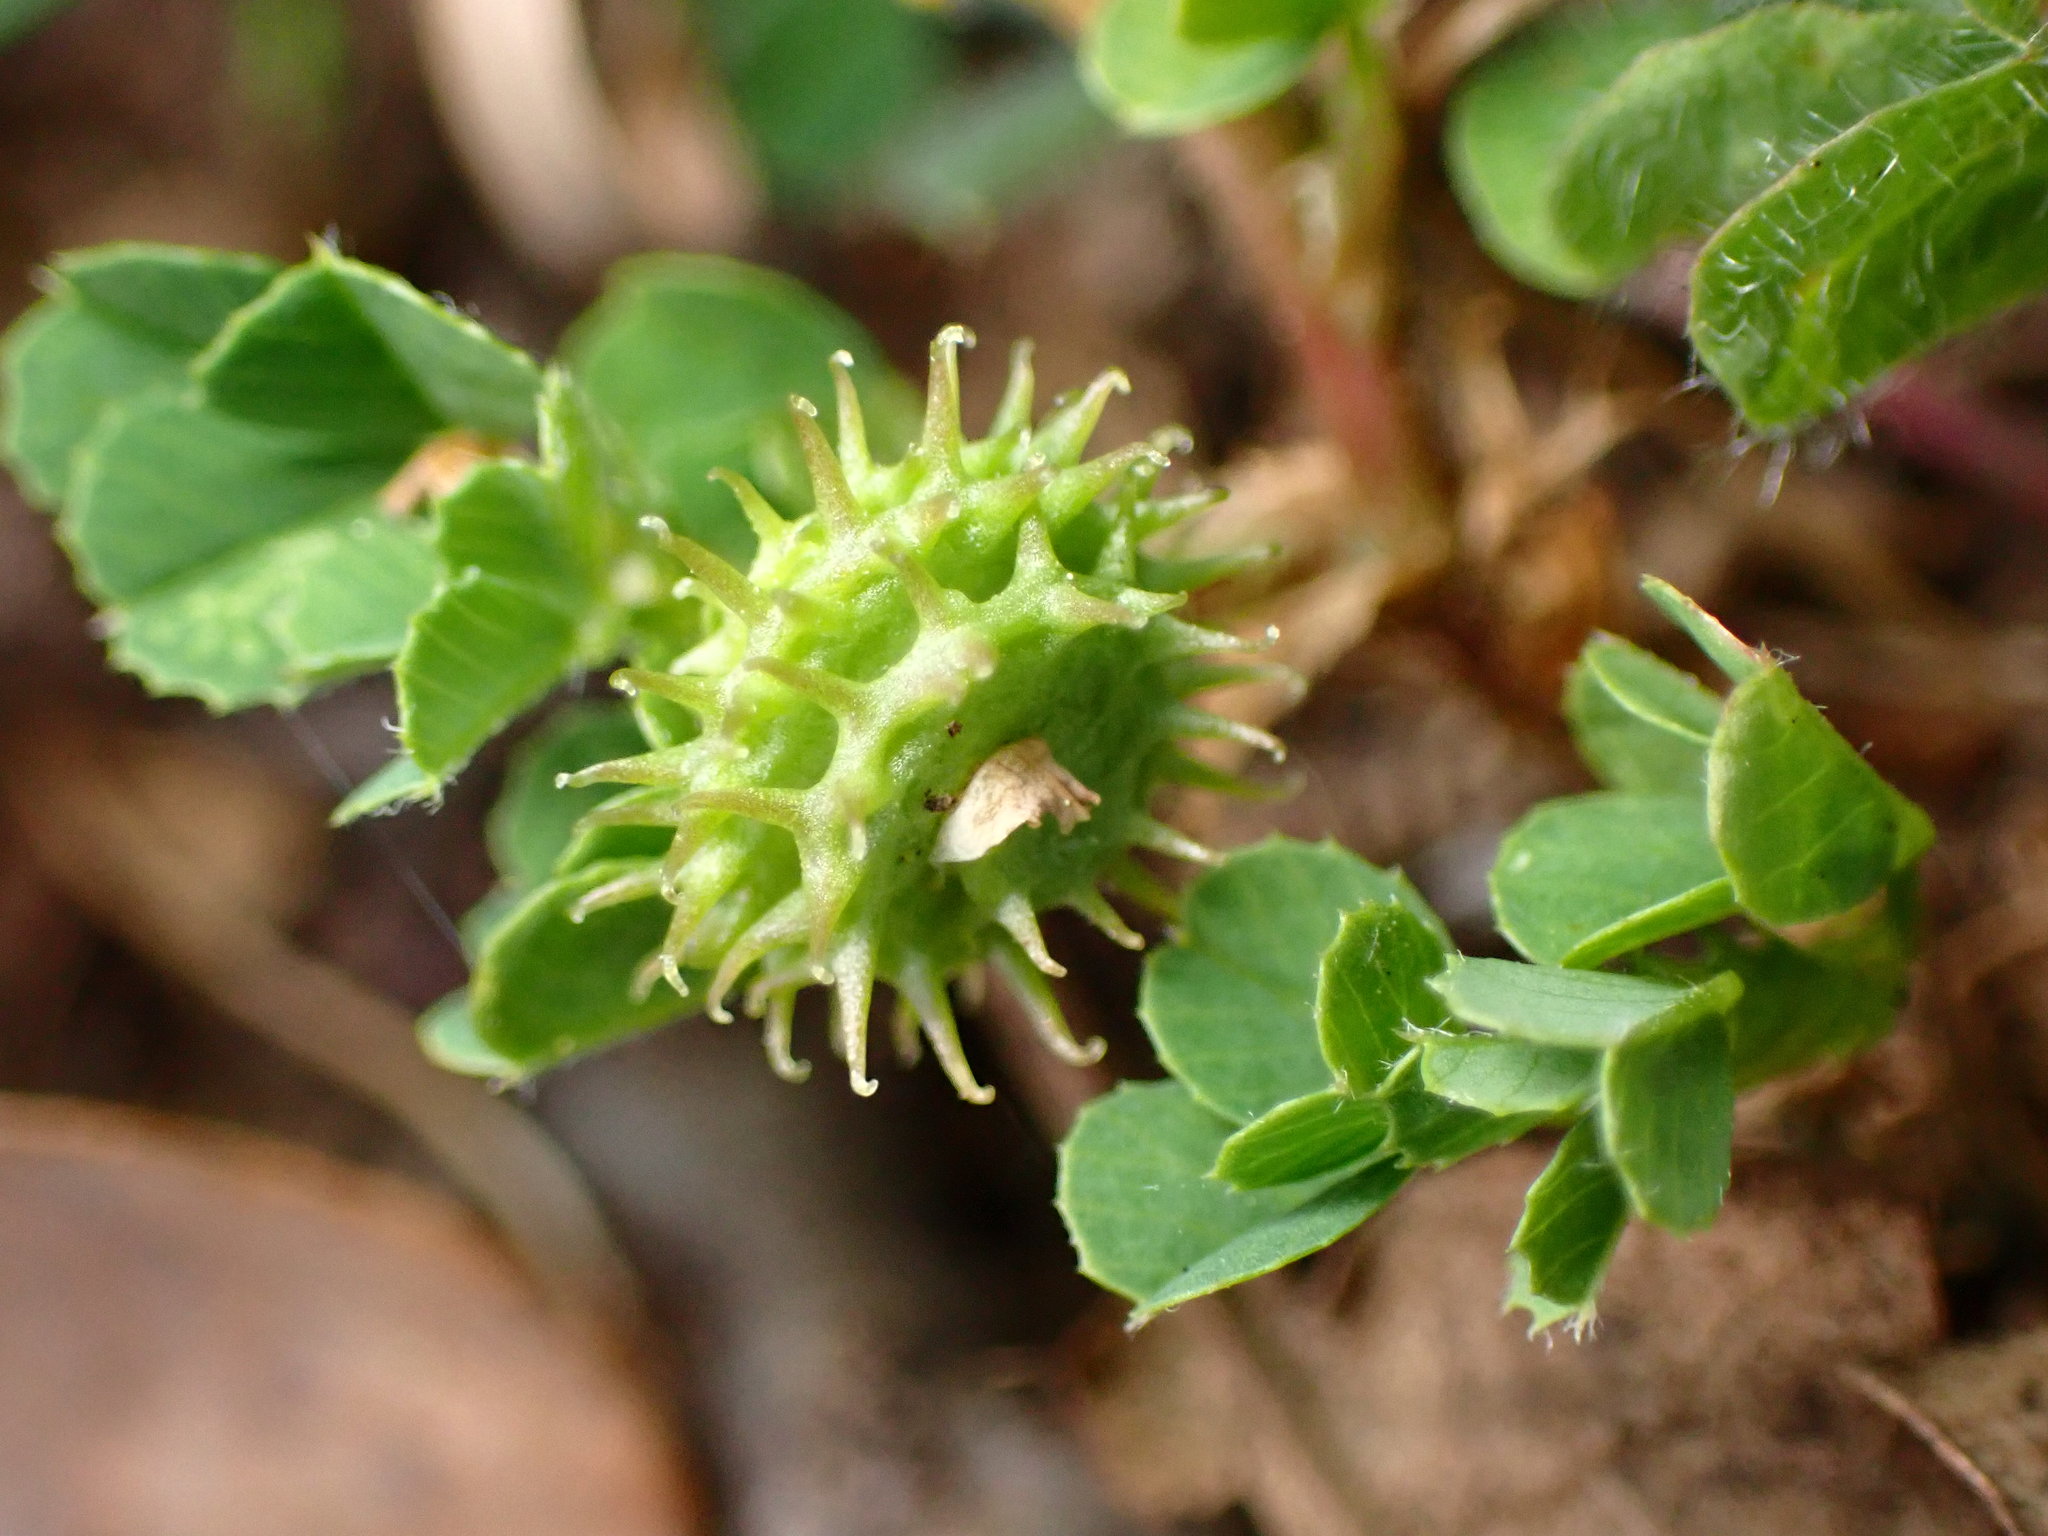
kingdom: Plantae
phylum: Tracheophyta
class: Magnoliopsida
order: Fabales
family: Fabaceae
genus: Medicago
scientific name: Medicago polymorpha
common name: Burclover
